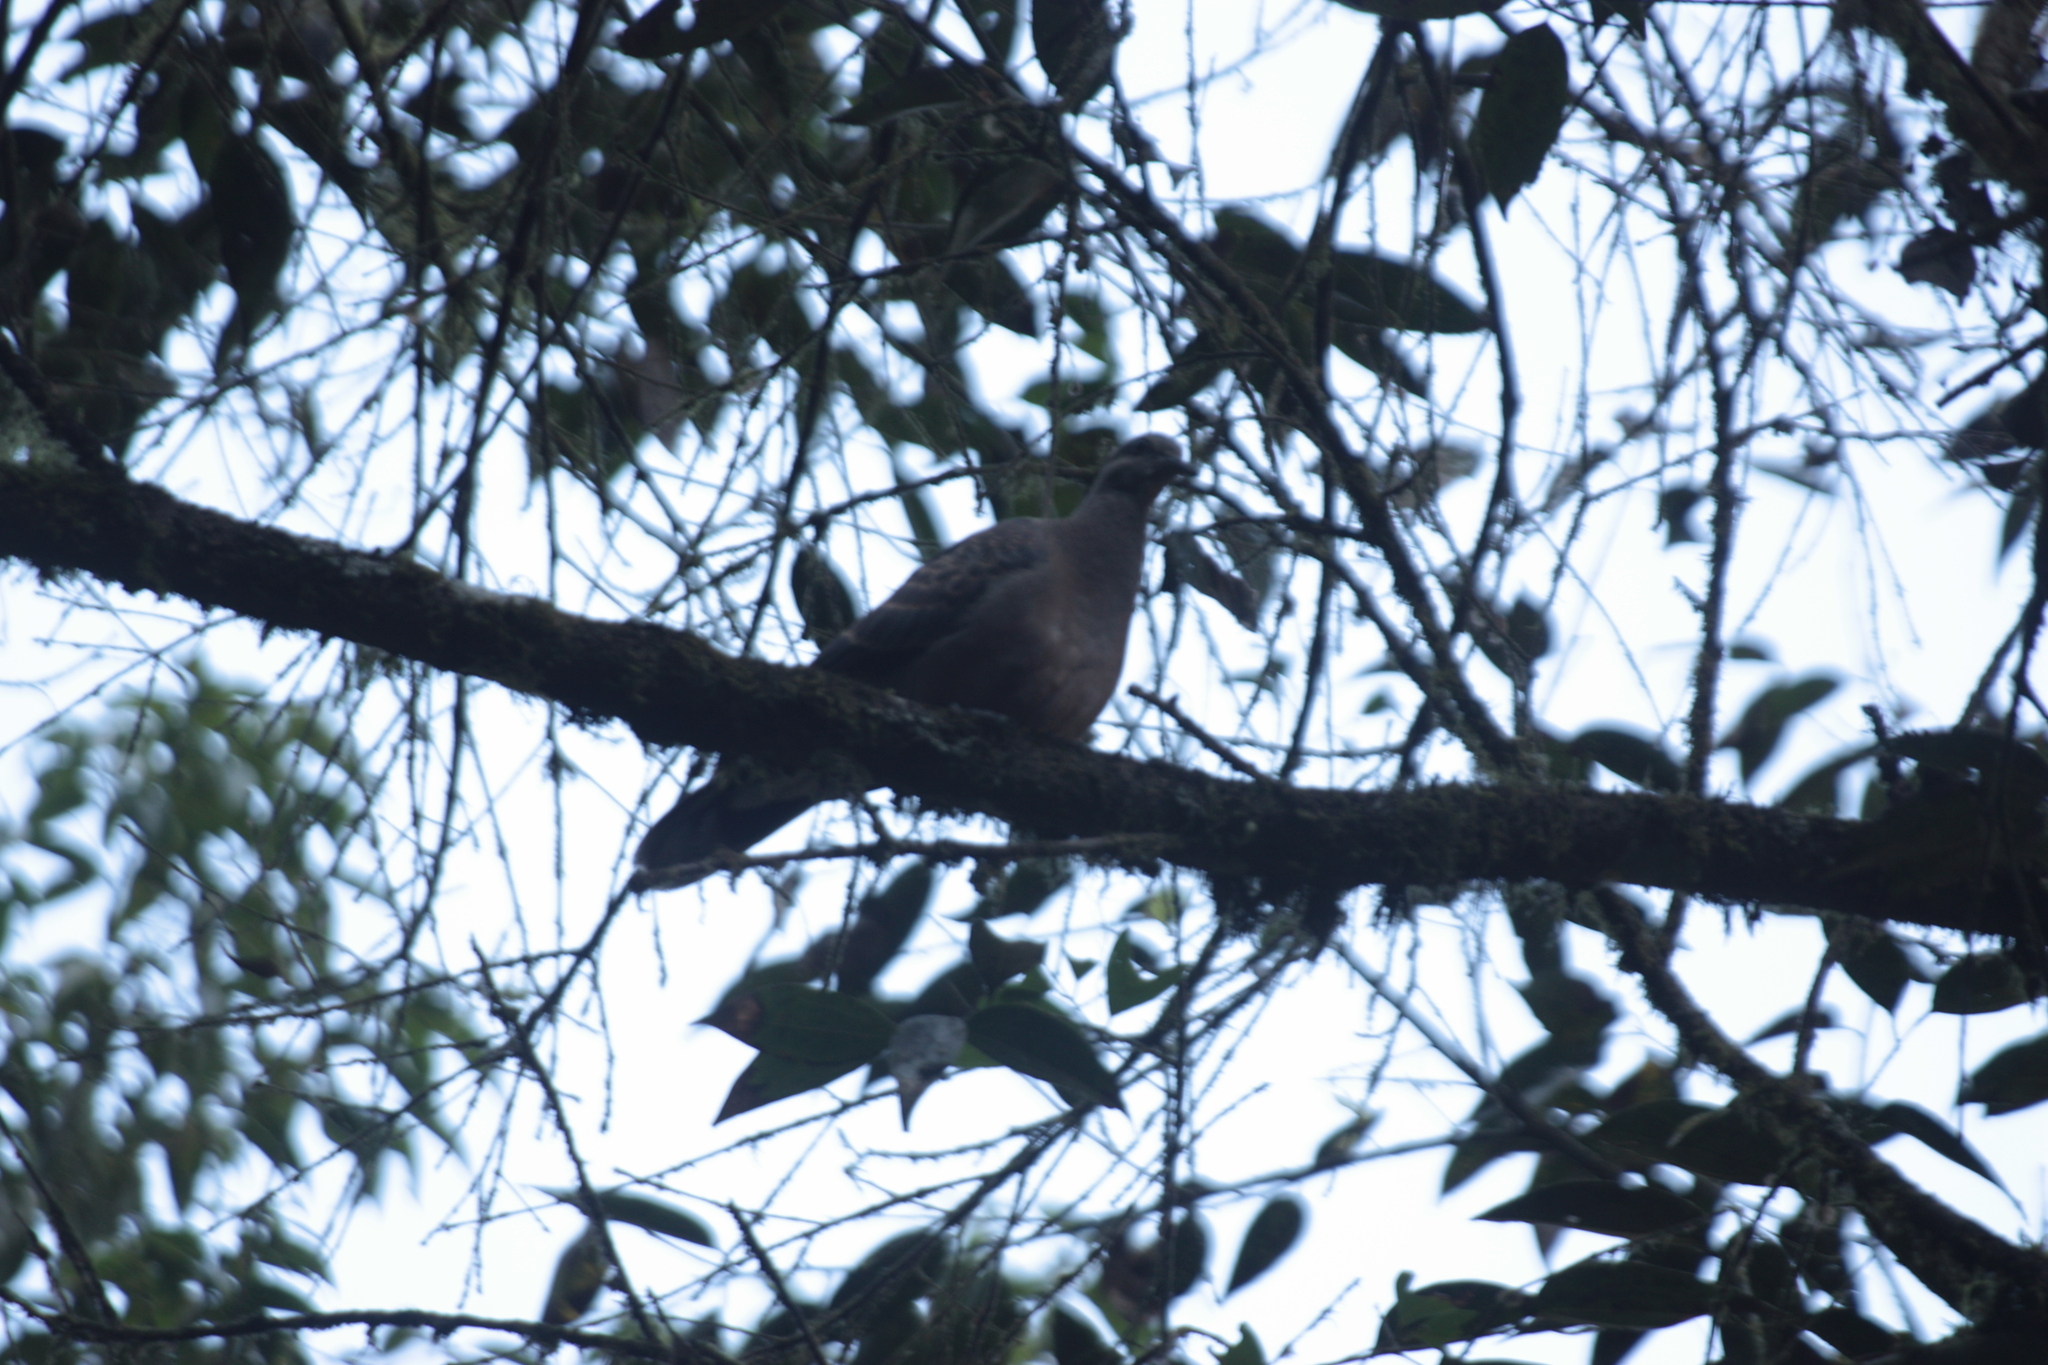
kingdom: Animalia
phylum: Chordata
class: Aves
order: Columbiformes
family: Columbidae
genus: Streptopelia
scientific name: Streptopelia orientalis
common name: Oriental turtle dove
